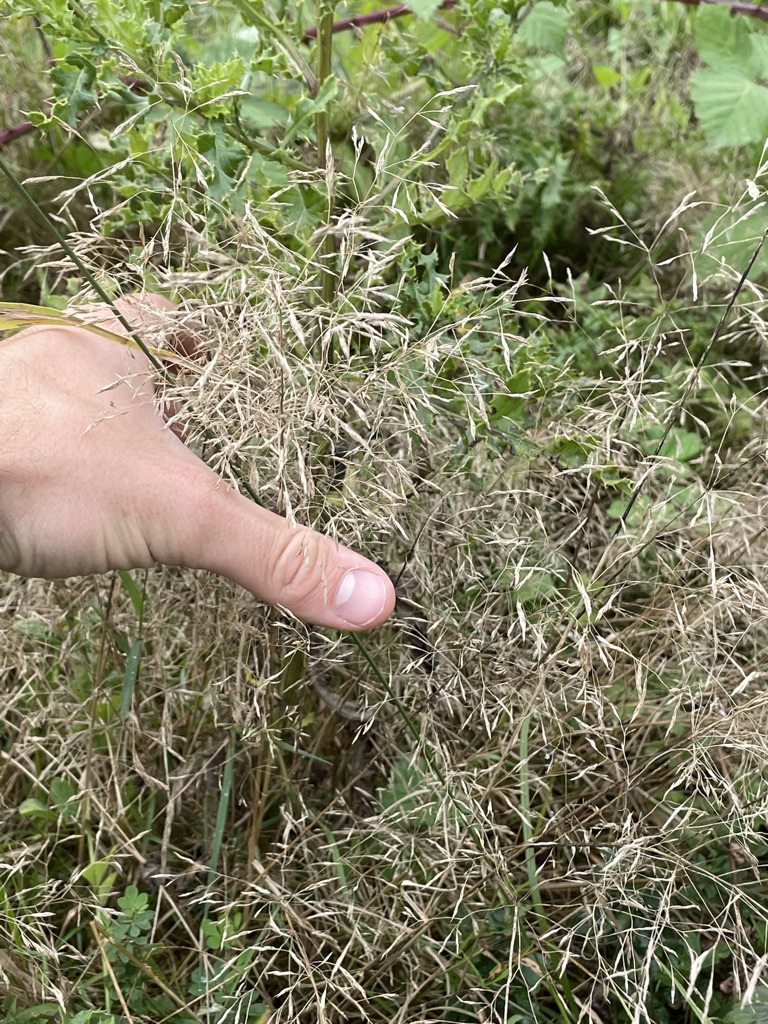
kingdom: Plantae
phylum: Tracheophyta
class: Liliopsida
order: Poales
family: Poaceae
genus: Agrostis
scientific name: Agrostis capillaris
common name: Colonial bentgrass
